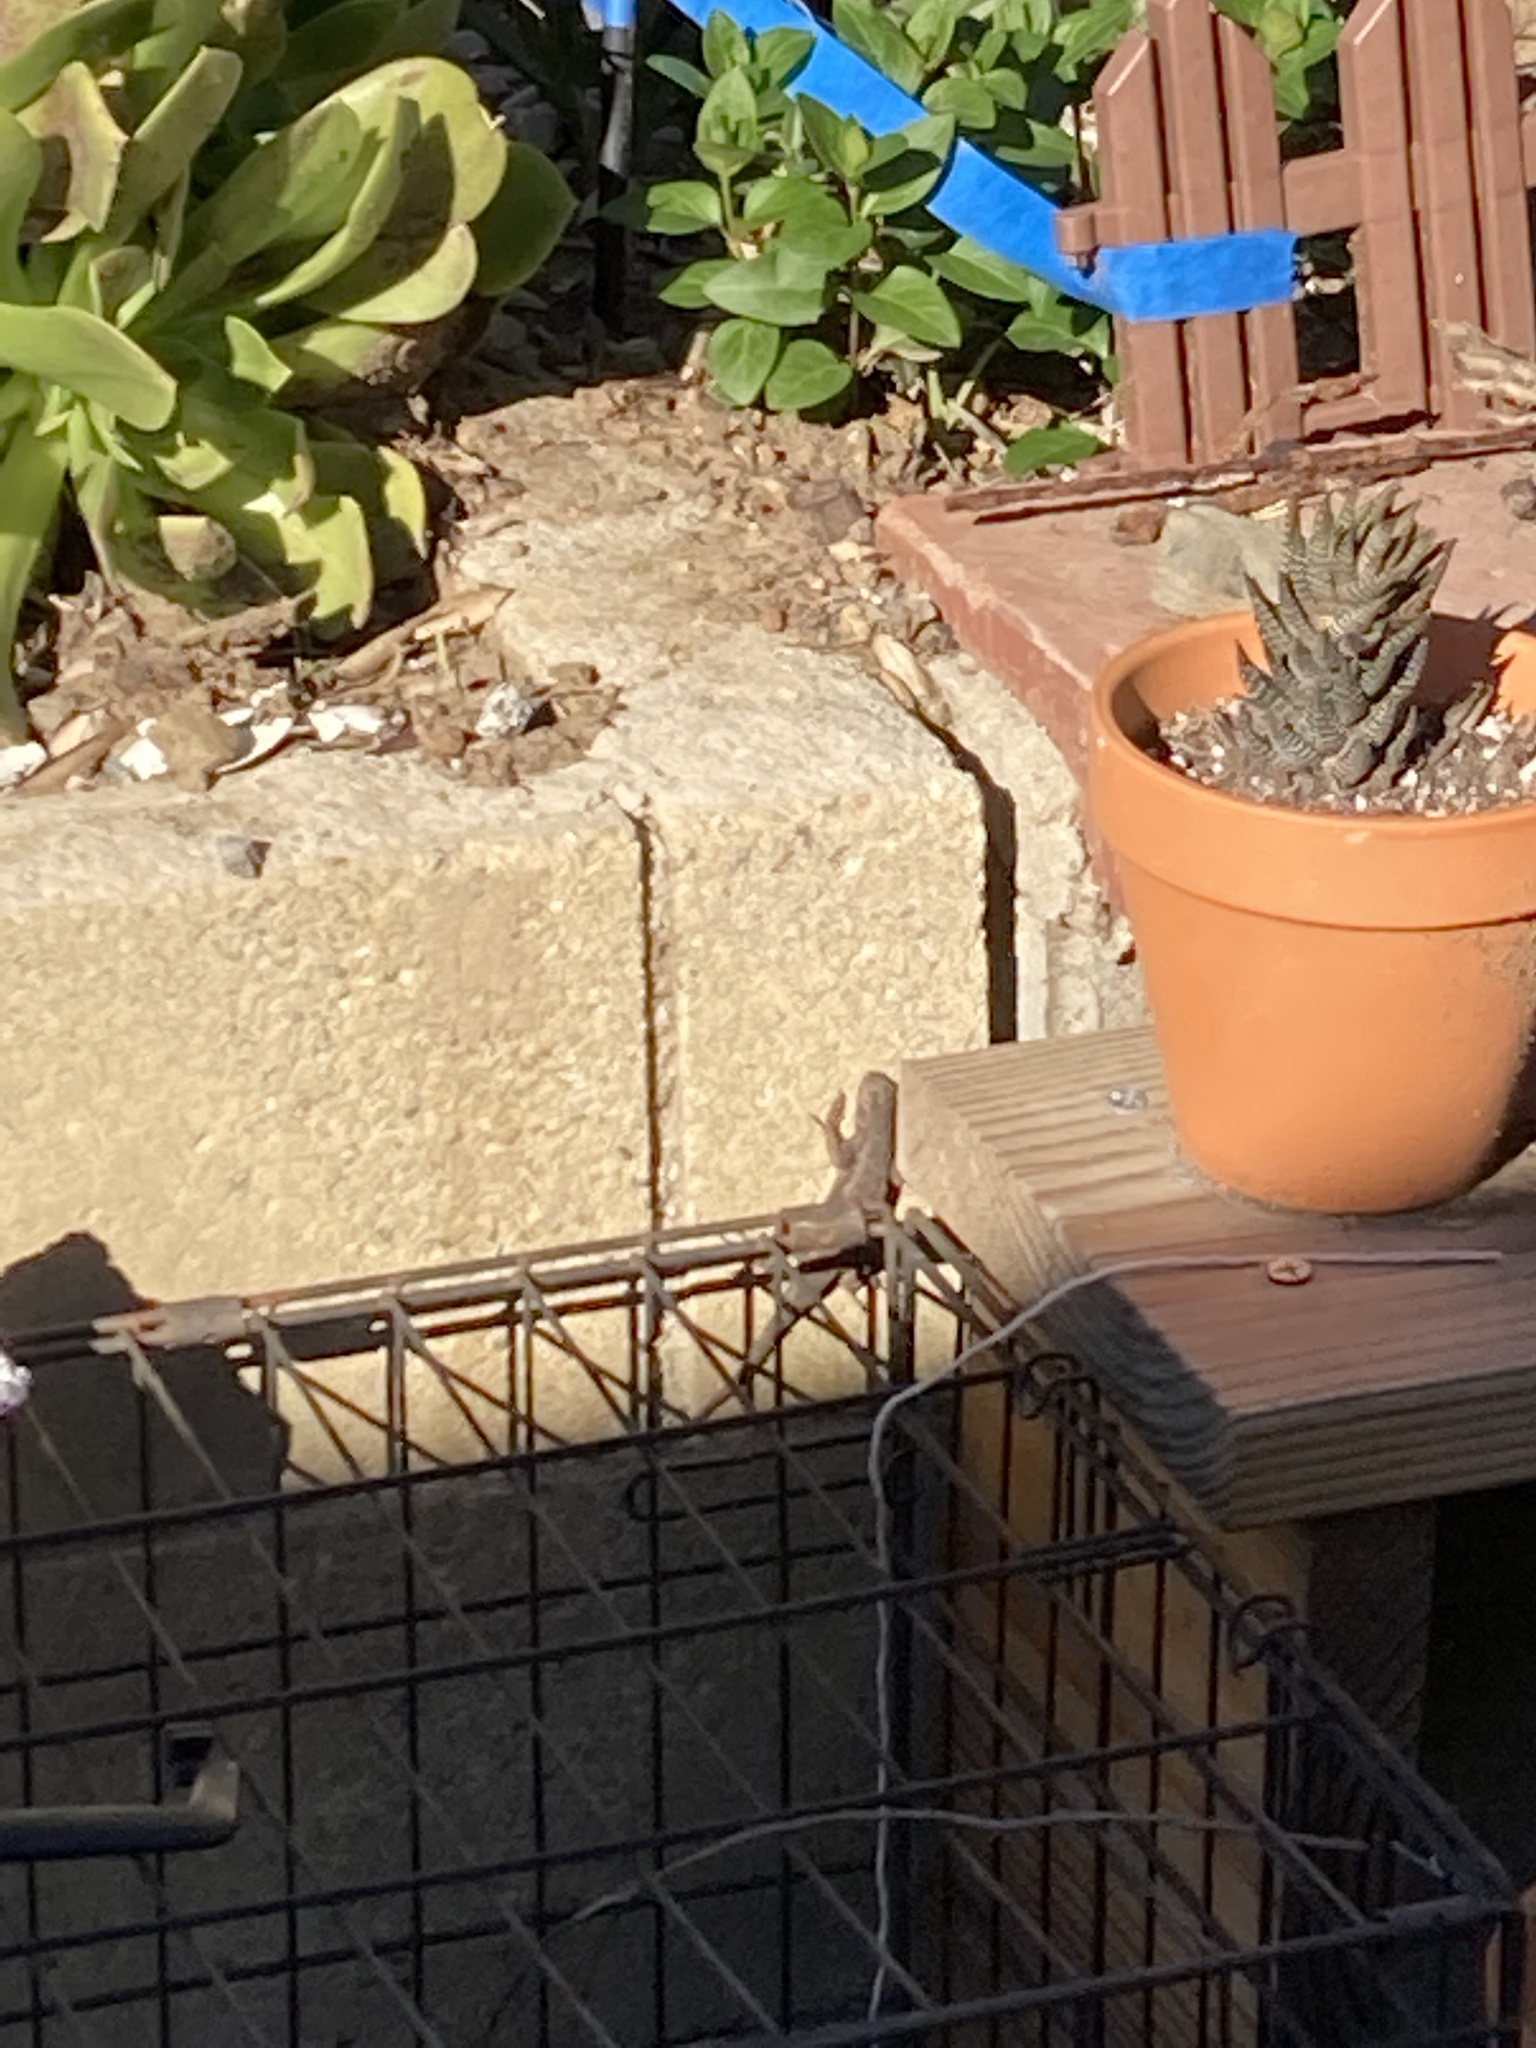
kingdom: Animalia
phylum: Chordata
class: Squamata
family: Phrynosomatidae
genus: Sceloporus
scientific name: Sceloporus occidentalis
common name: Western fence lizard
